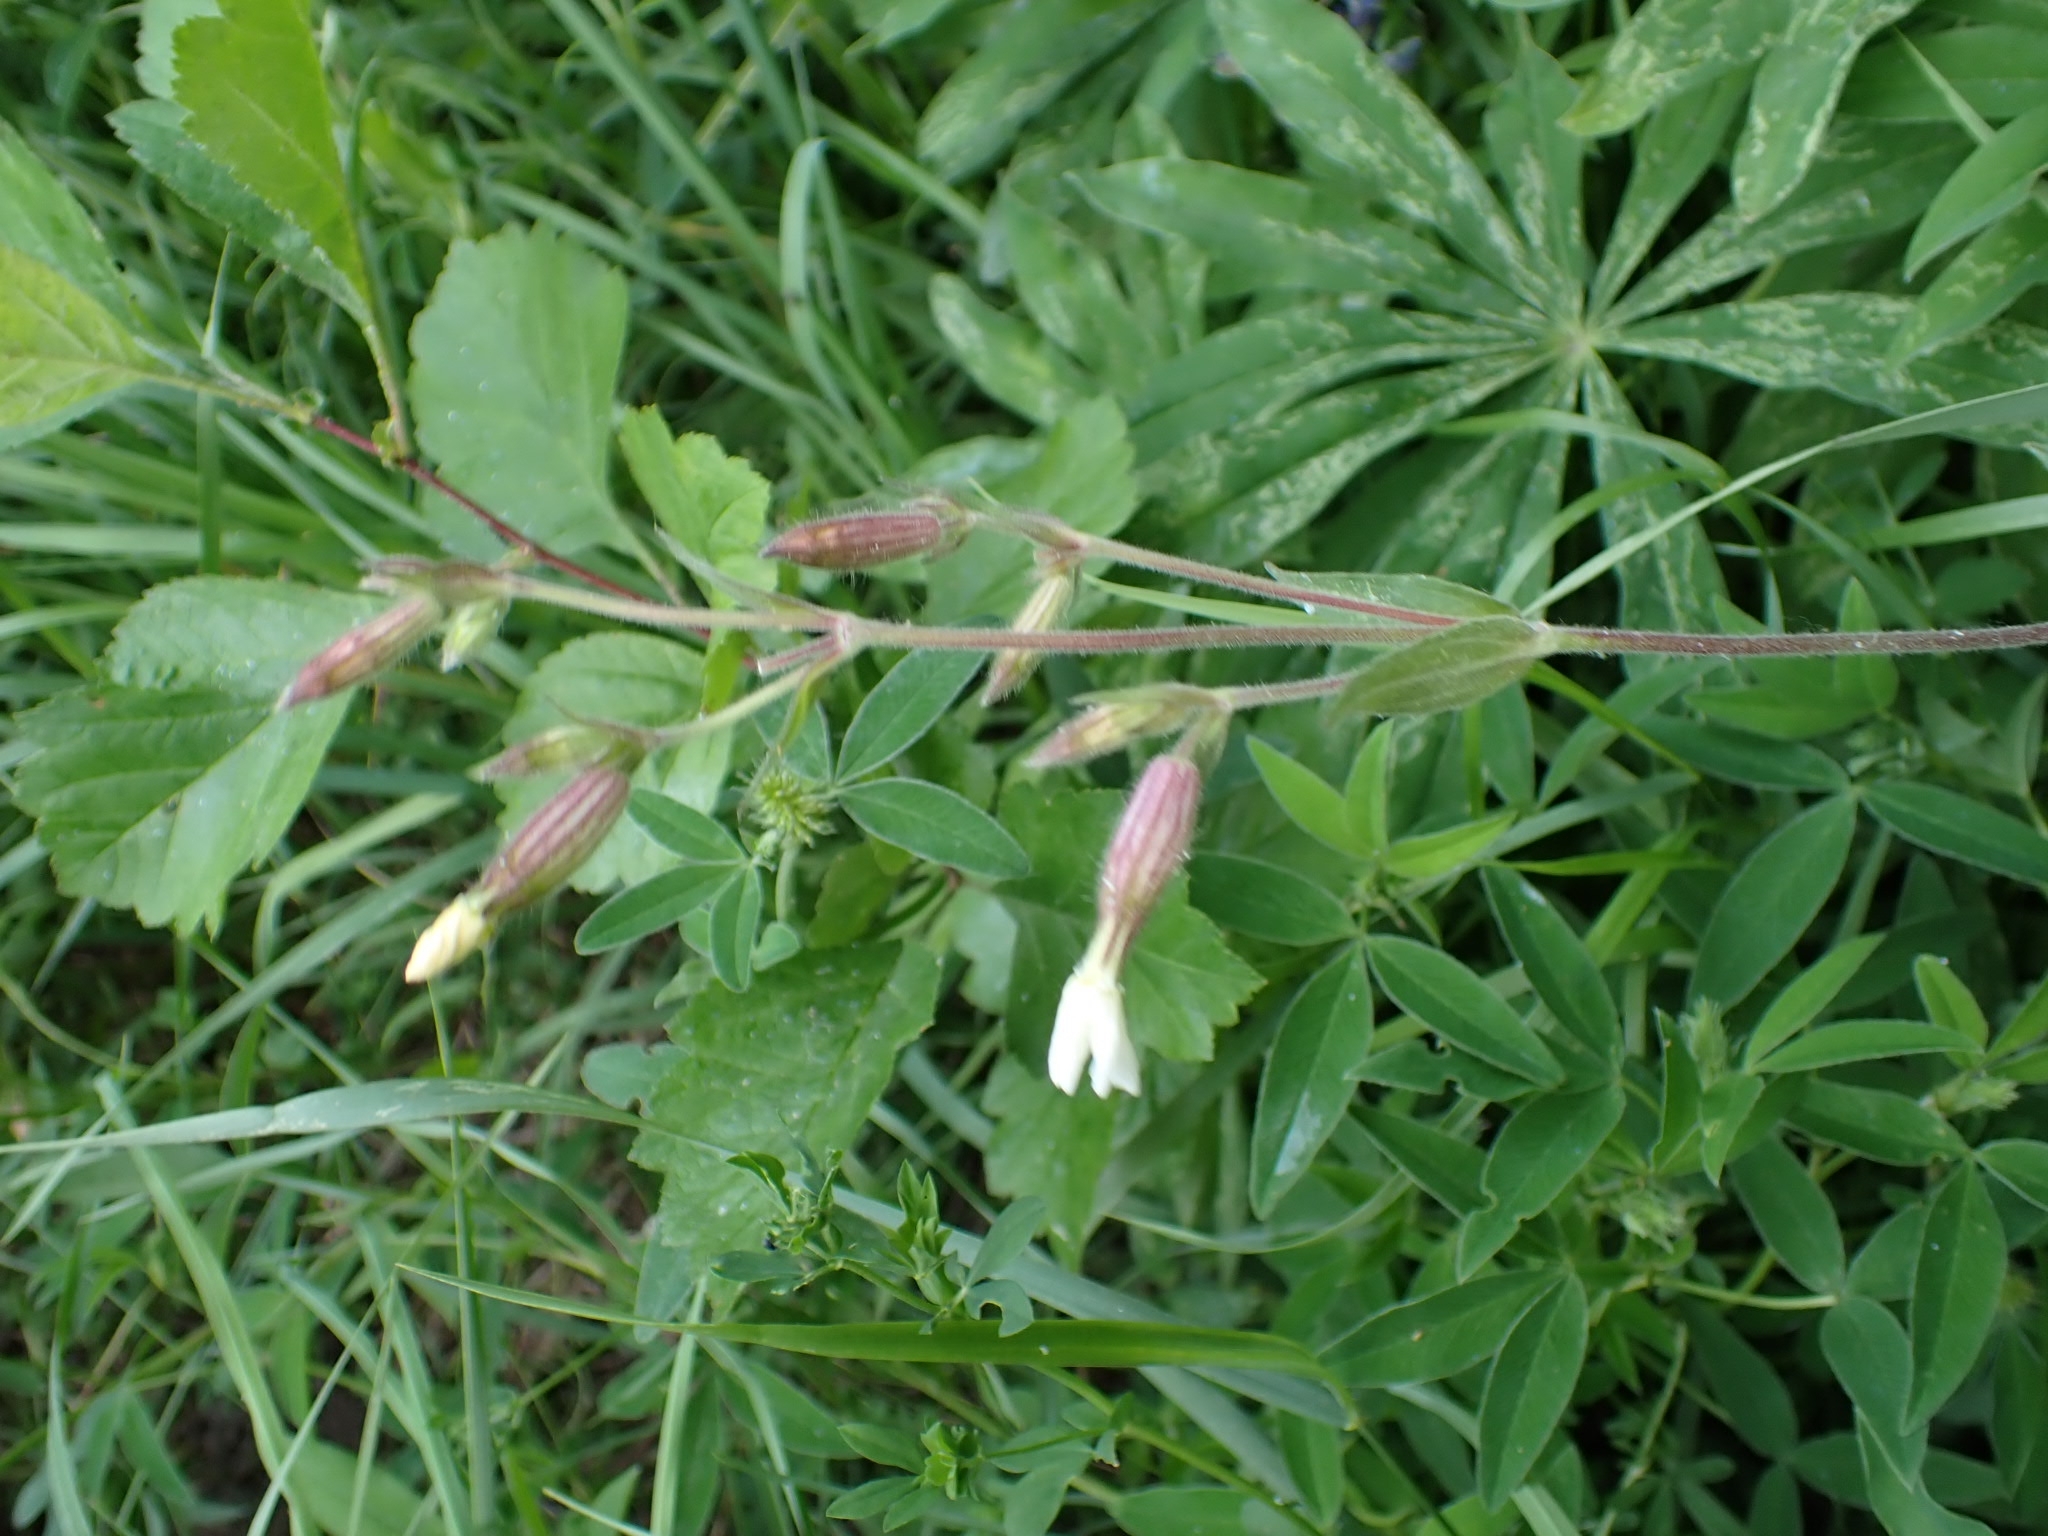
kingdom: Plantae
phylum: Tracheophyta
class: Magnoliopsida
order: Caryophyllales
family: Caryophyllaceae
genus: Silene
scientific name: Silene latifolia
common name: White campion
